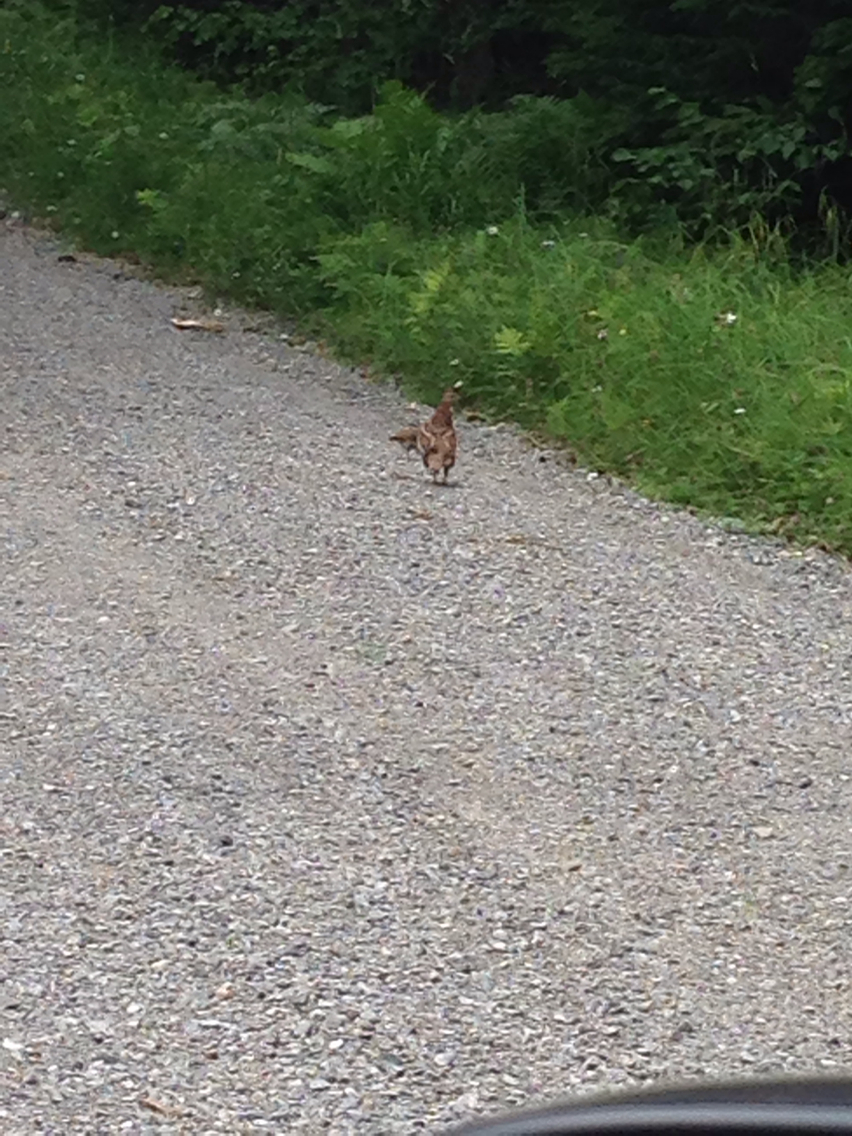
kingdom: Animalia
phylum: Chordata
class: Aves
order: Galliformes
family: Phasianidae
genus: Bonasa
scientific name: Bonasa umbellus
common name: Ruffed grouse
